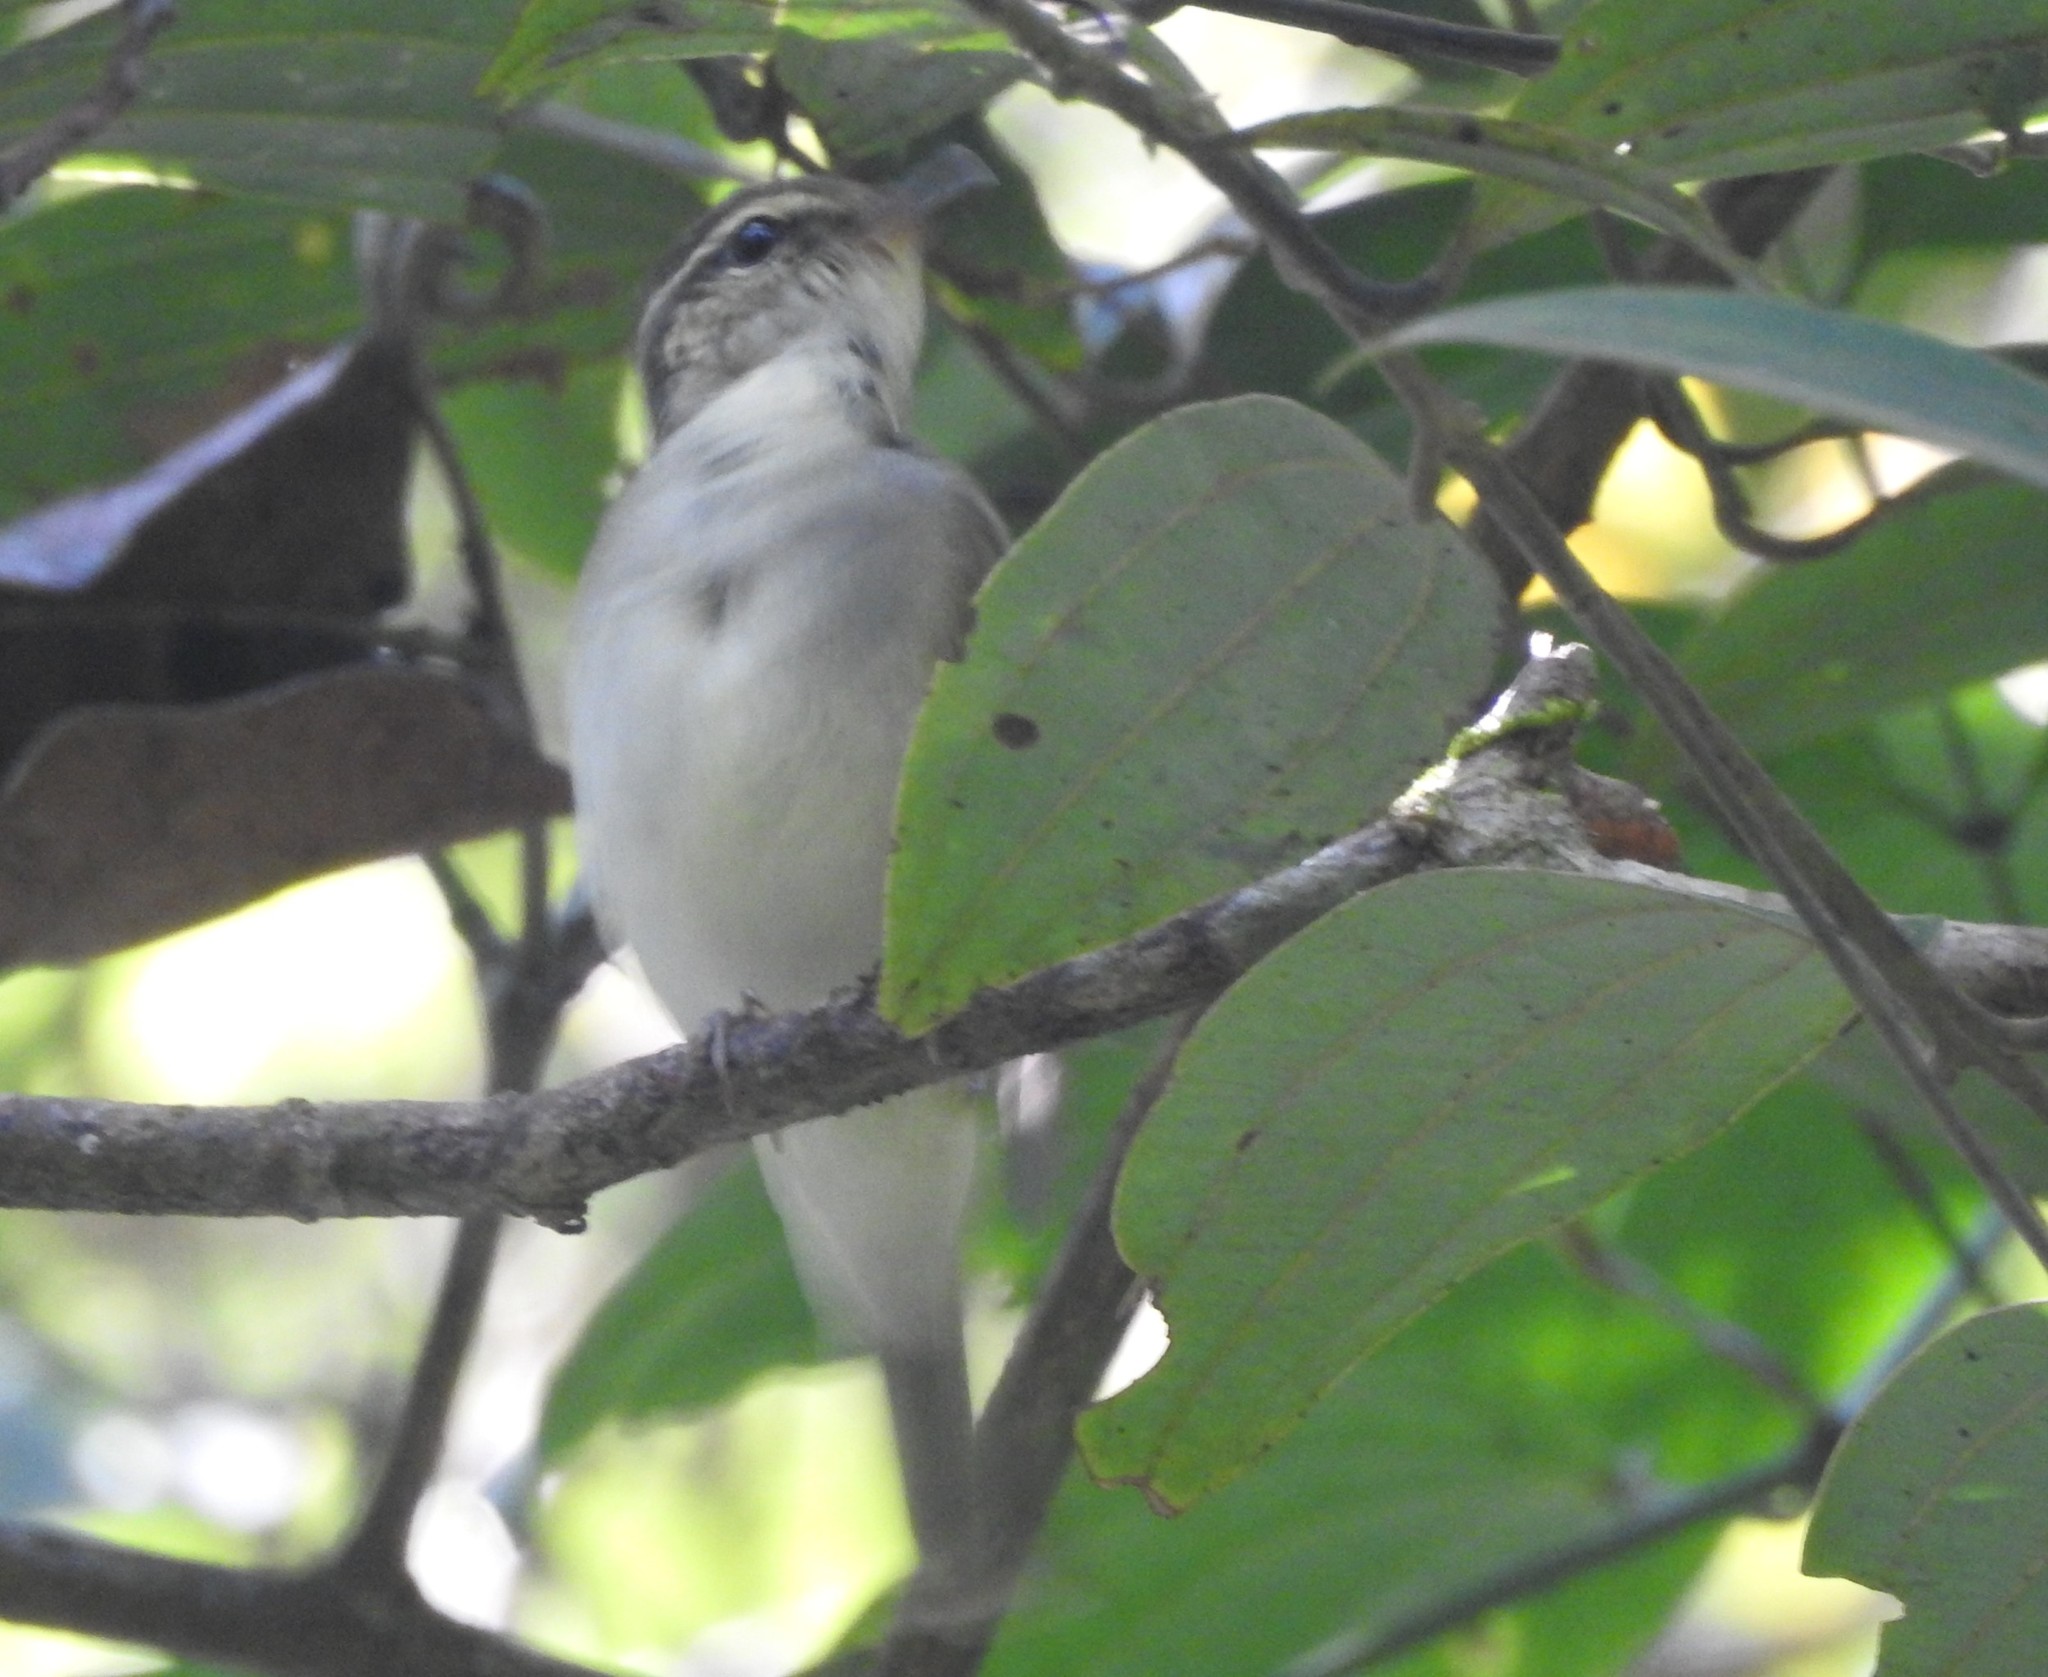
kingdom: Animalia
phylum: Chordata
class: Aves
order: Passeriformes
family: Phylloscopidae
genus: Phylloscopus
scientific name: Phylloscopus magnirostris
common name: Large-billed leaf warbler
